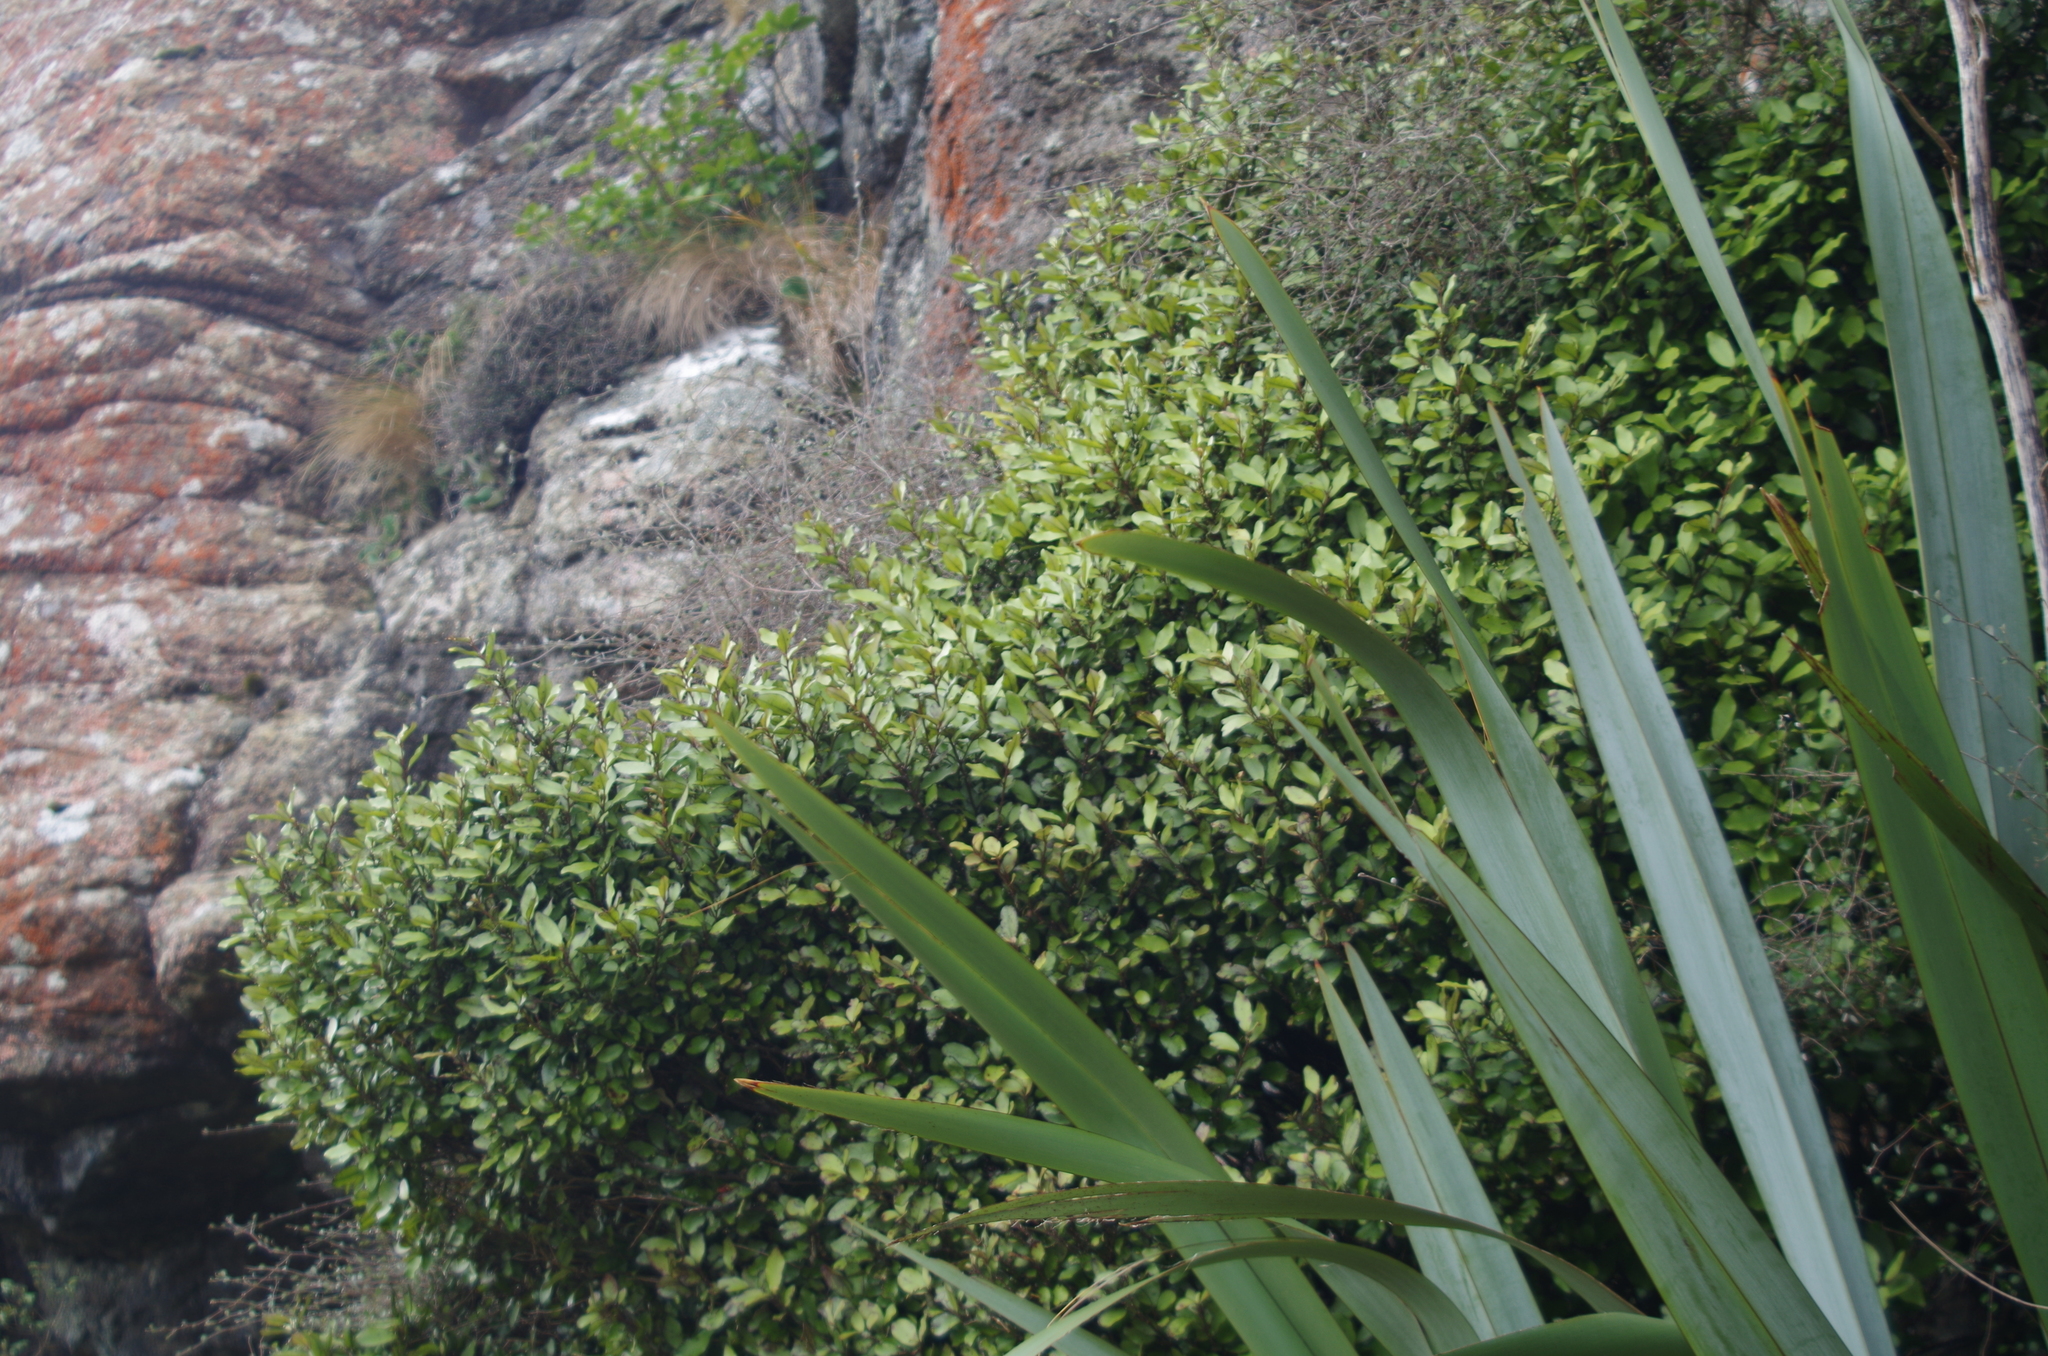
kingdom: Plantae
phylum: Tracheophyta
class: Magnoliopsida
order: Canellales
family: Winteraceae
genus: Pseudowintera
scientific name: Pseudowintera colorata
